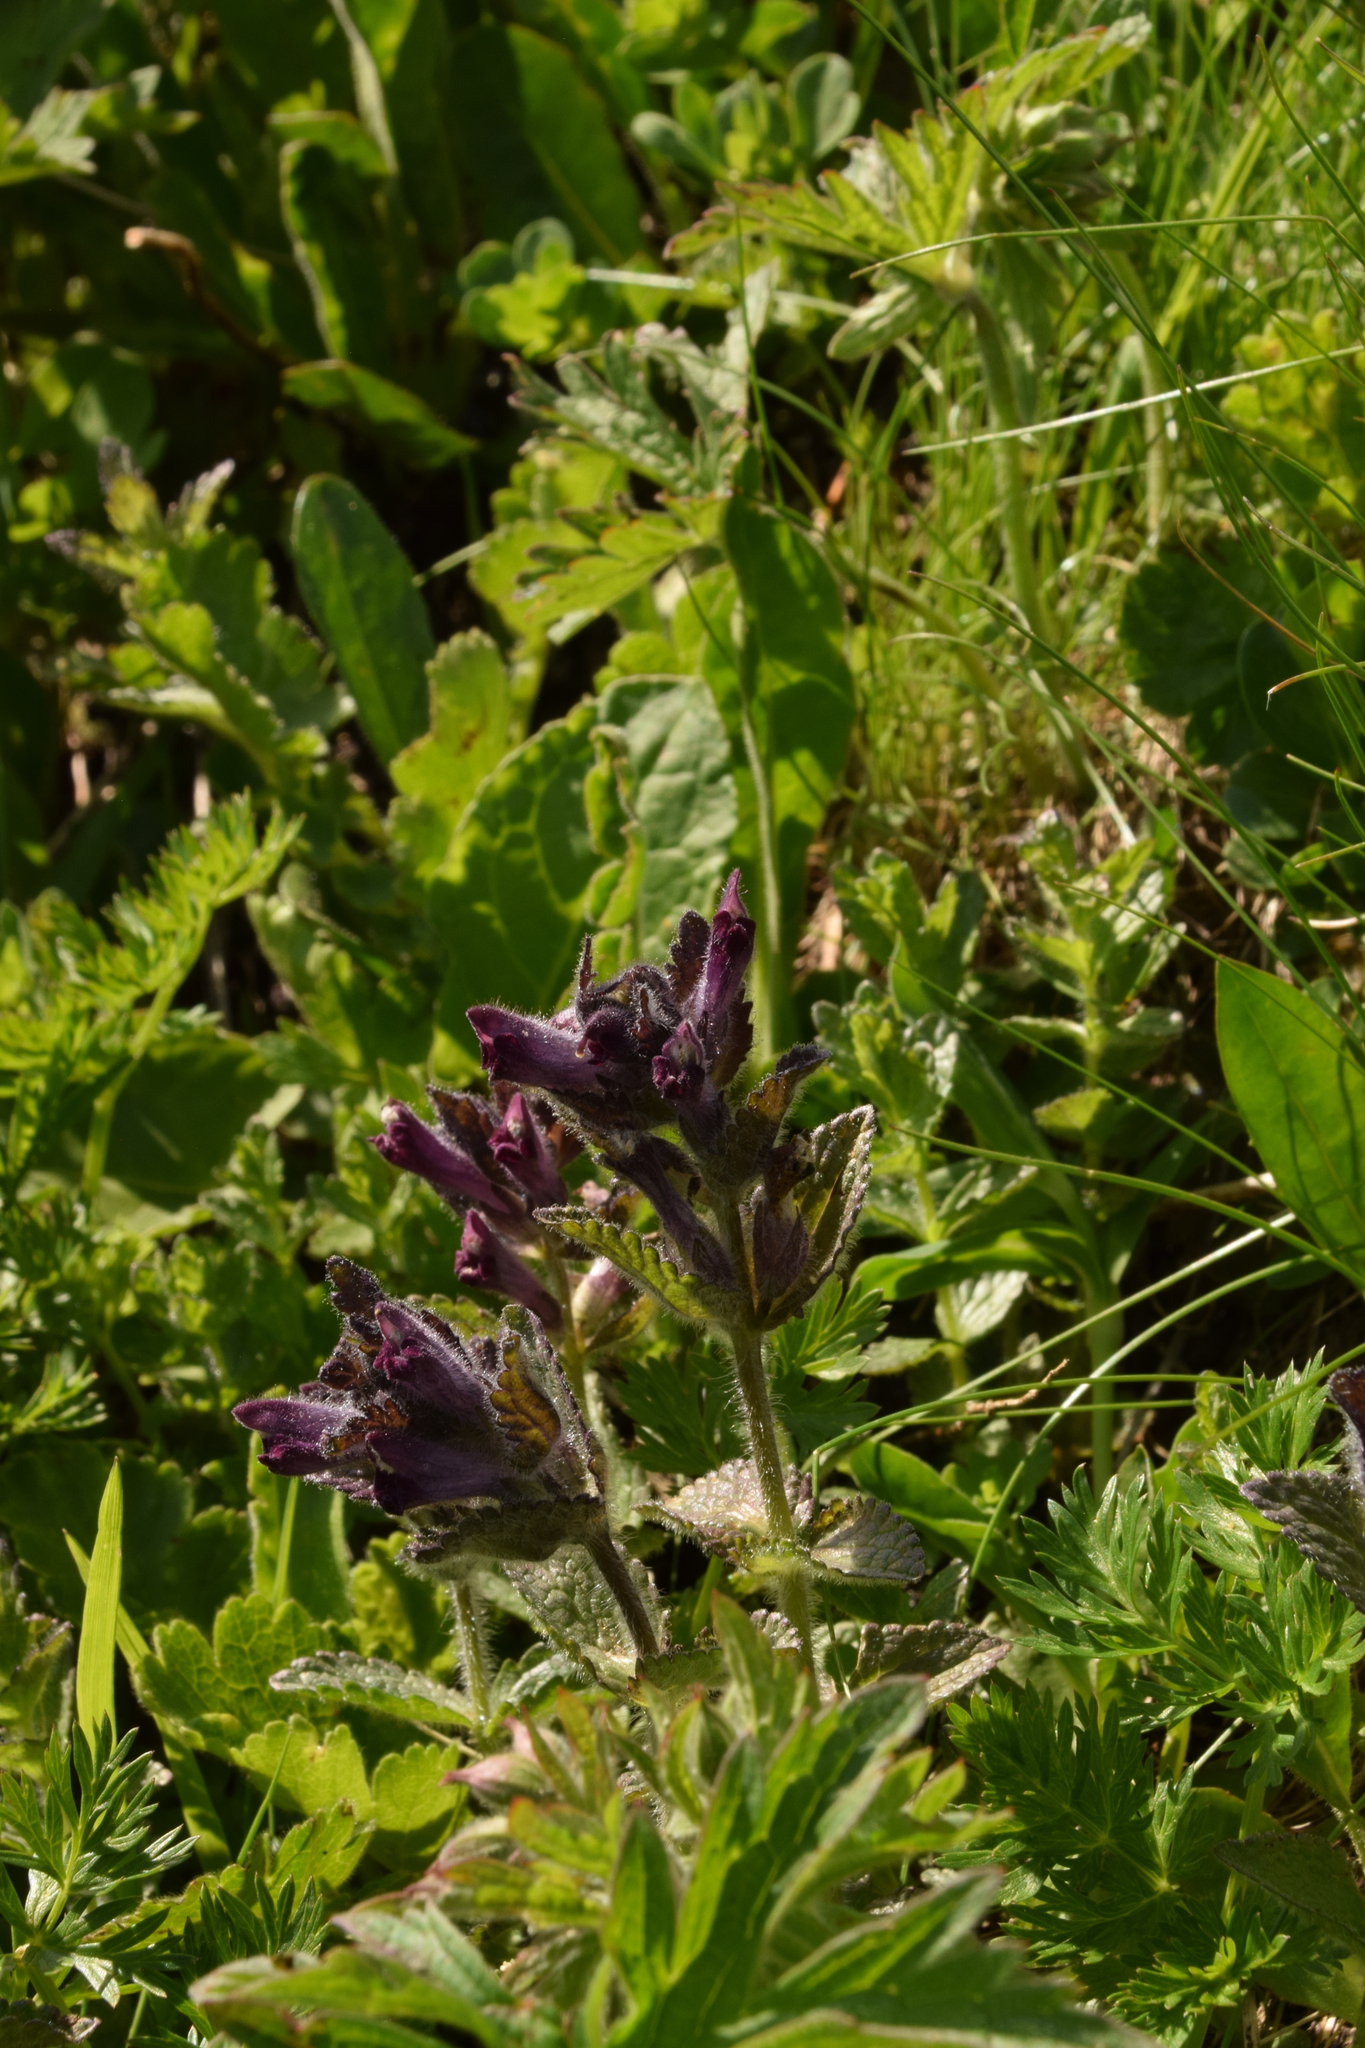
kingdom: Plantae
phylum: Tracheophyta
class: Magnoliopsida
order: Lamiales
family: Orobanchaceae
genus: Bartsia
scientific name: Bartsia alpina
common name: Alpine bartsia
